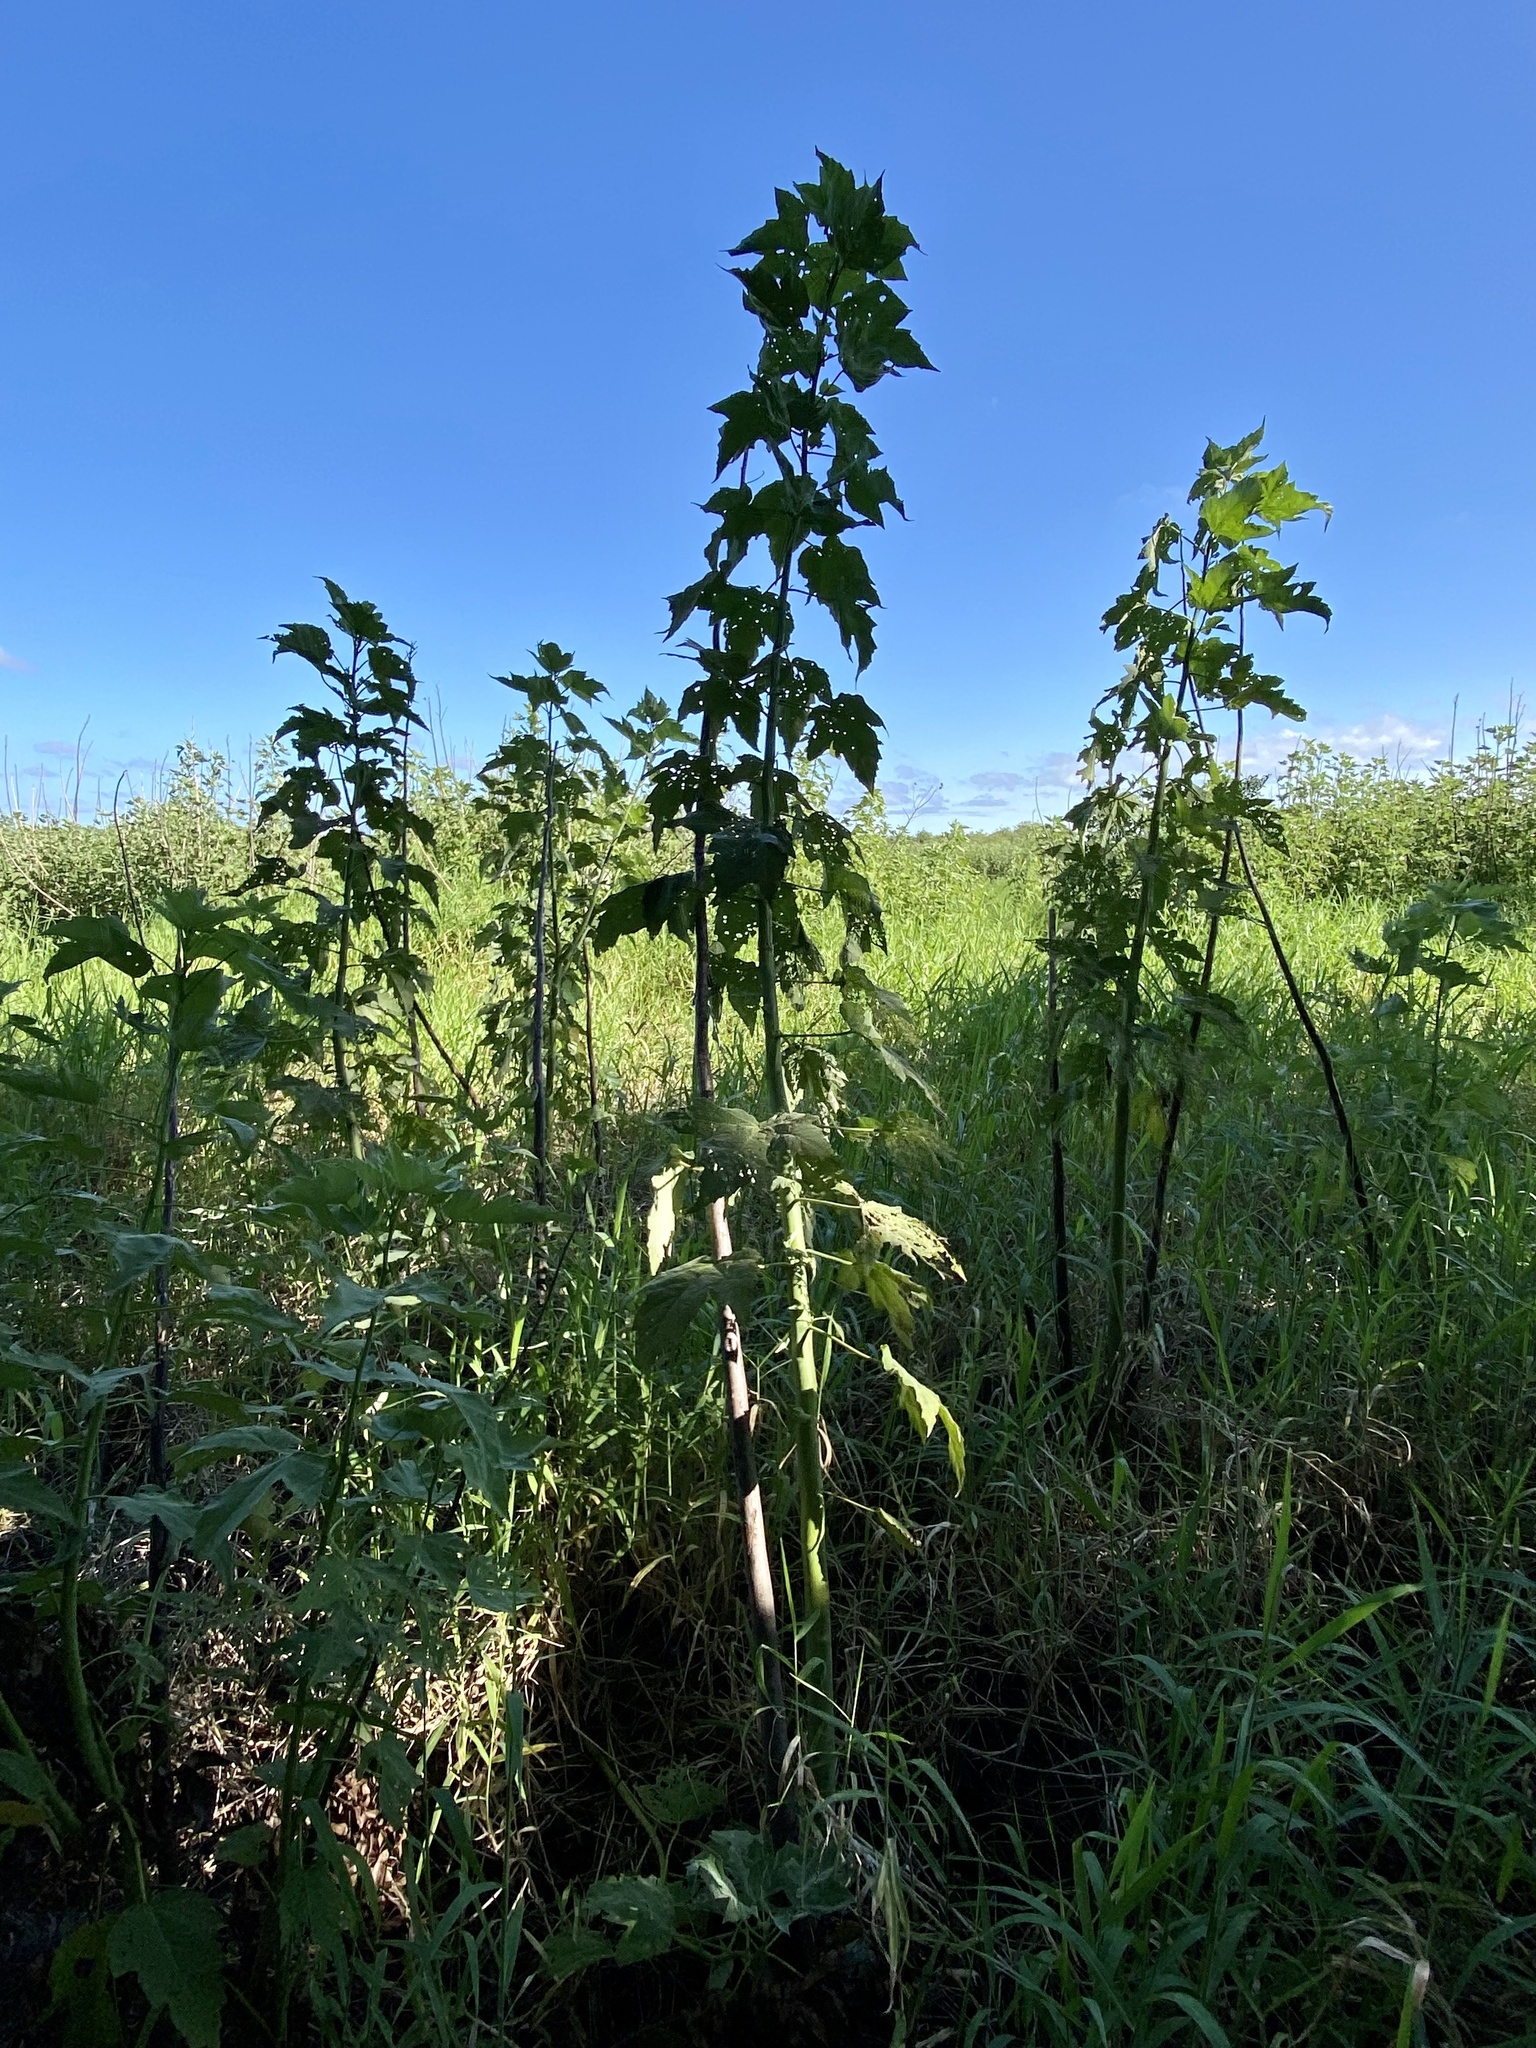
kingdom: Plantae
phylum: Tracheophyta
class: Magnoliopsida
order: Malvales
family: Malvaceae
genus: Hibiscus
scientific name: Hibiscus grandiflorus
